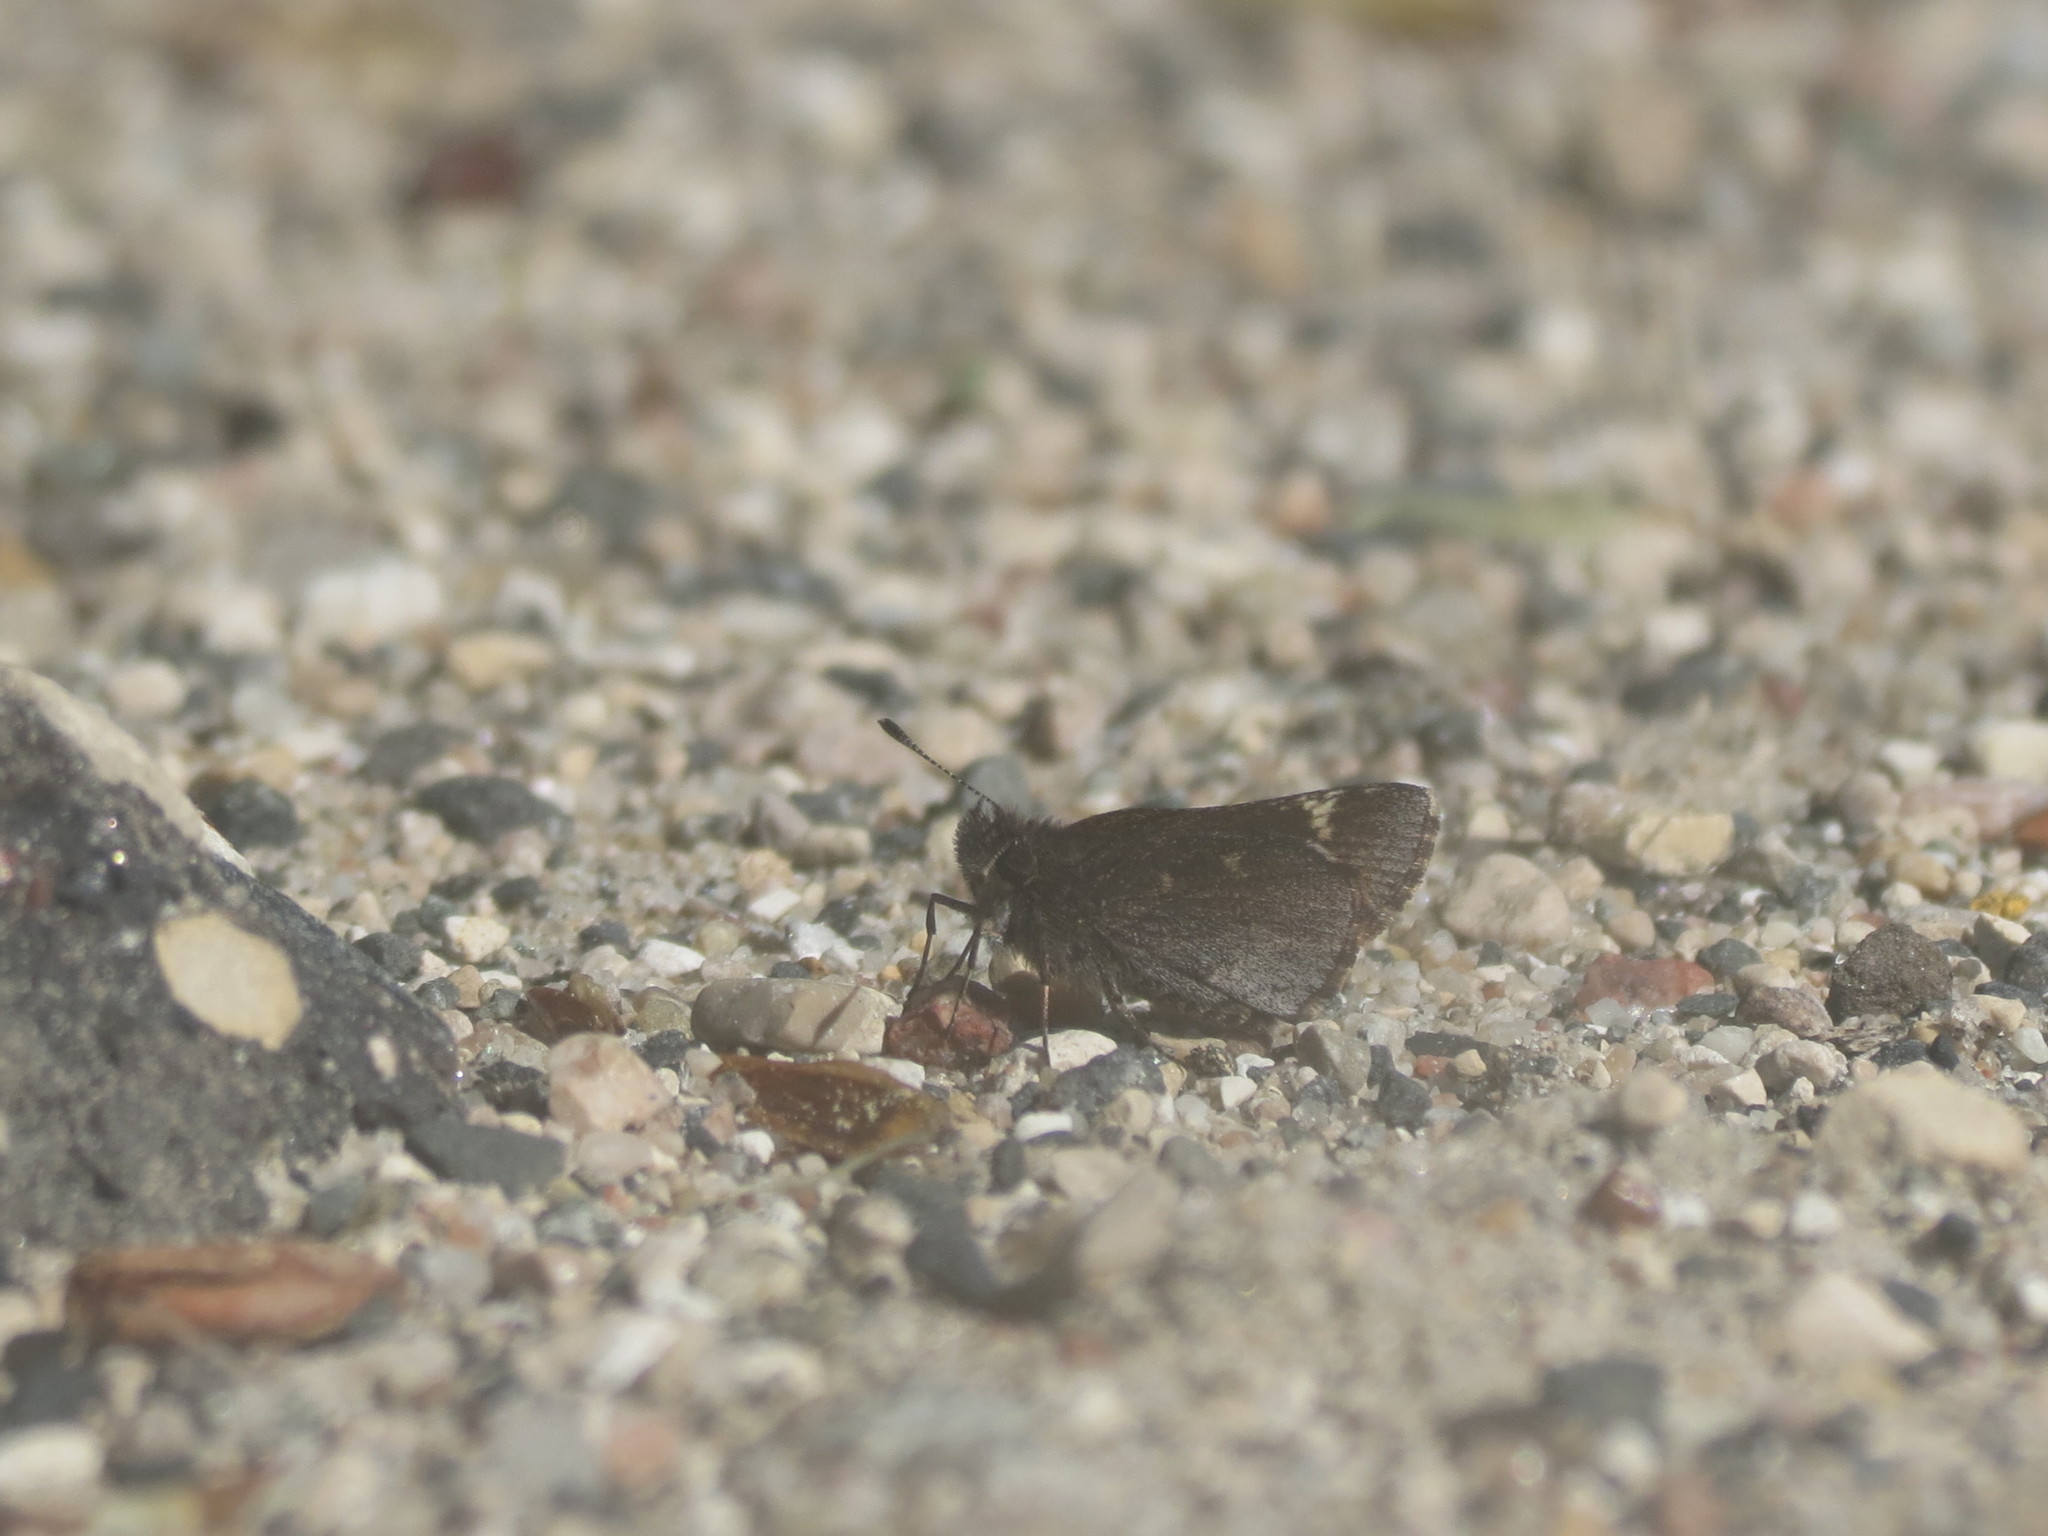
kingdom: Animalia
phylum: Arthropoda
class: Insecta
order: Lepidoptera
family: Hesperiidae
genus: Mastor
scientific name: Mastor vialis
